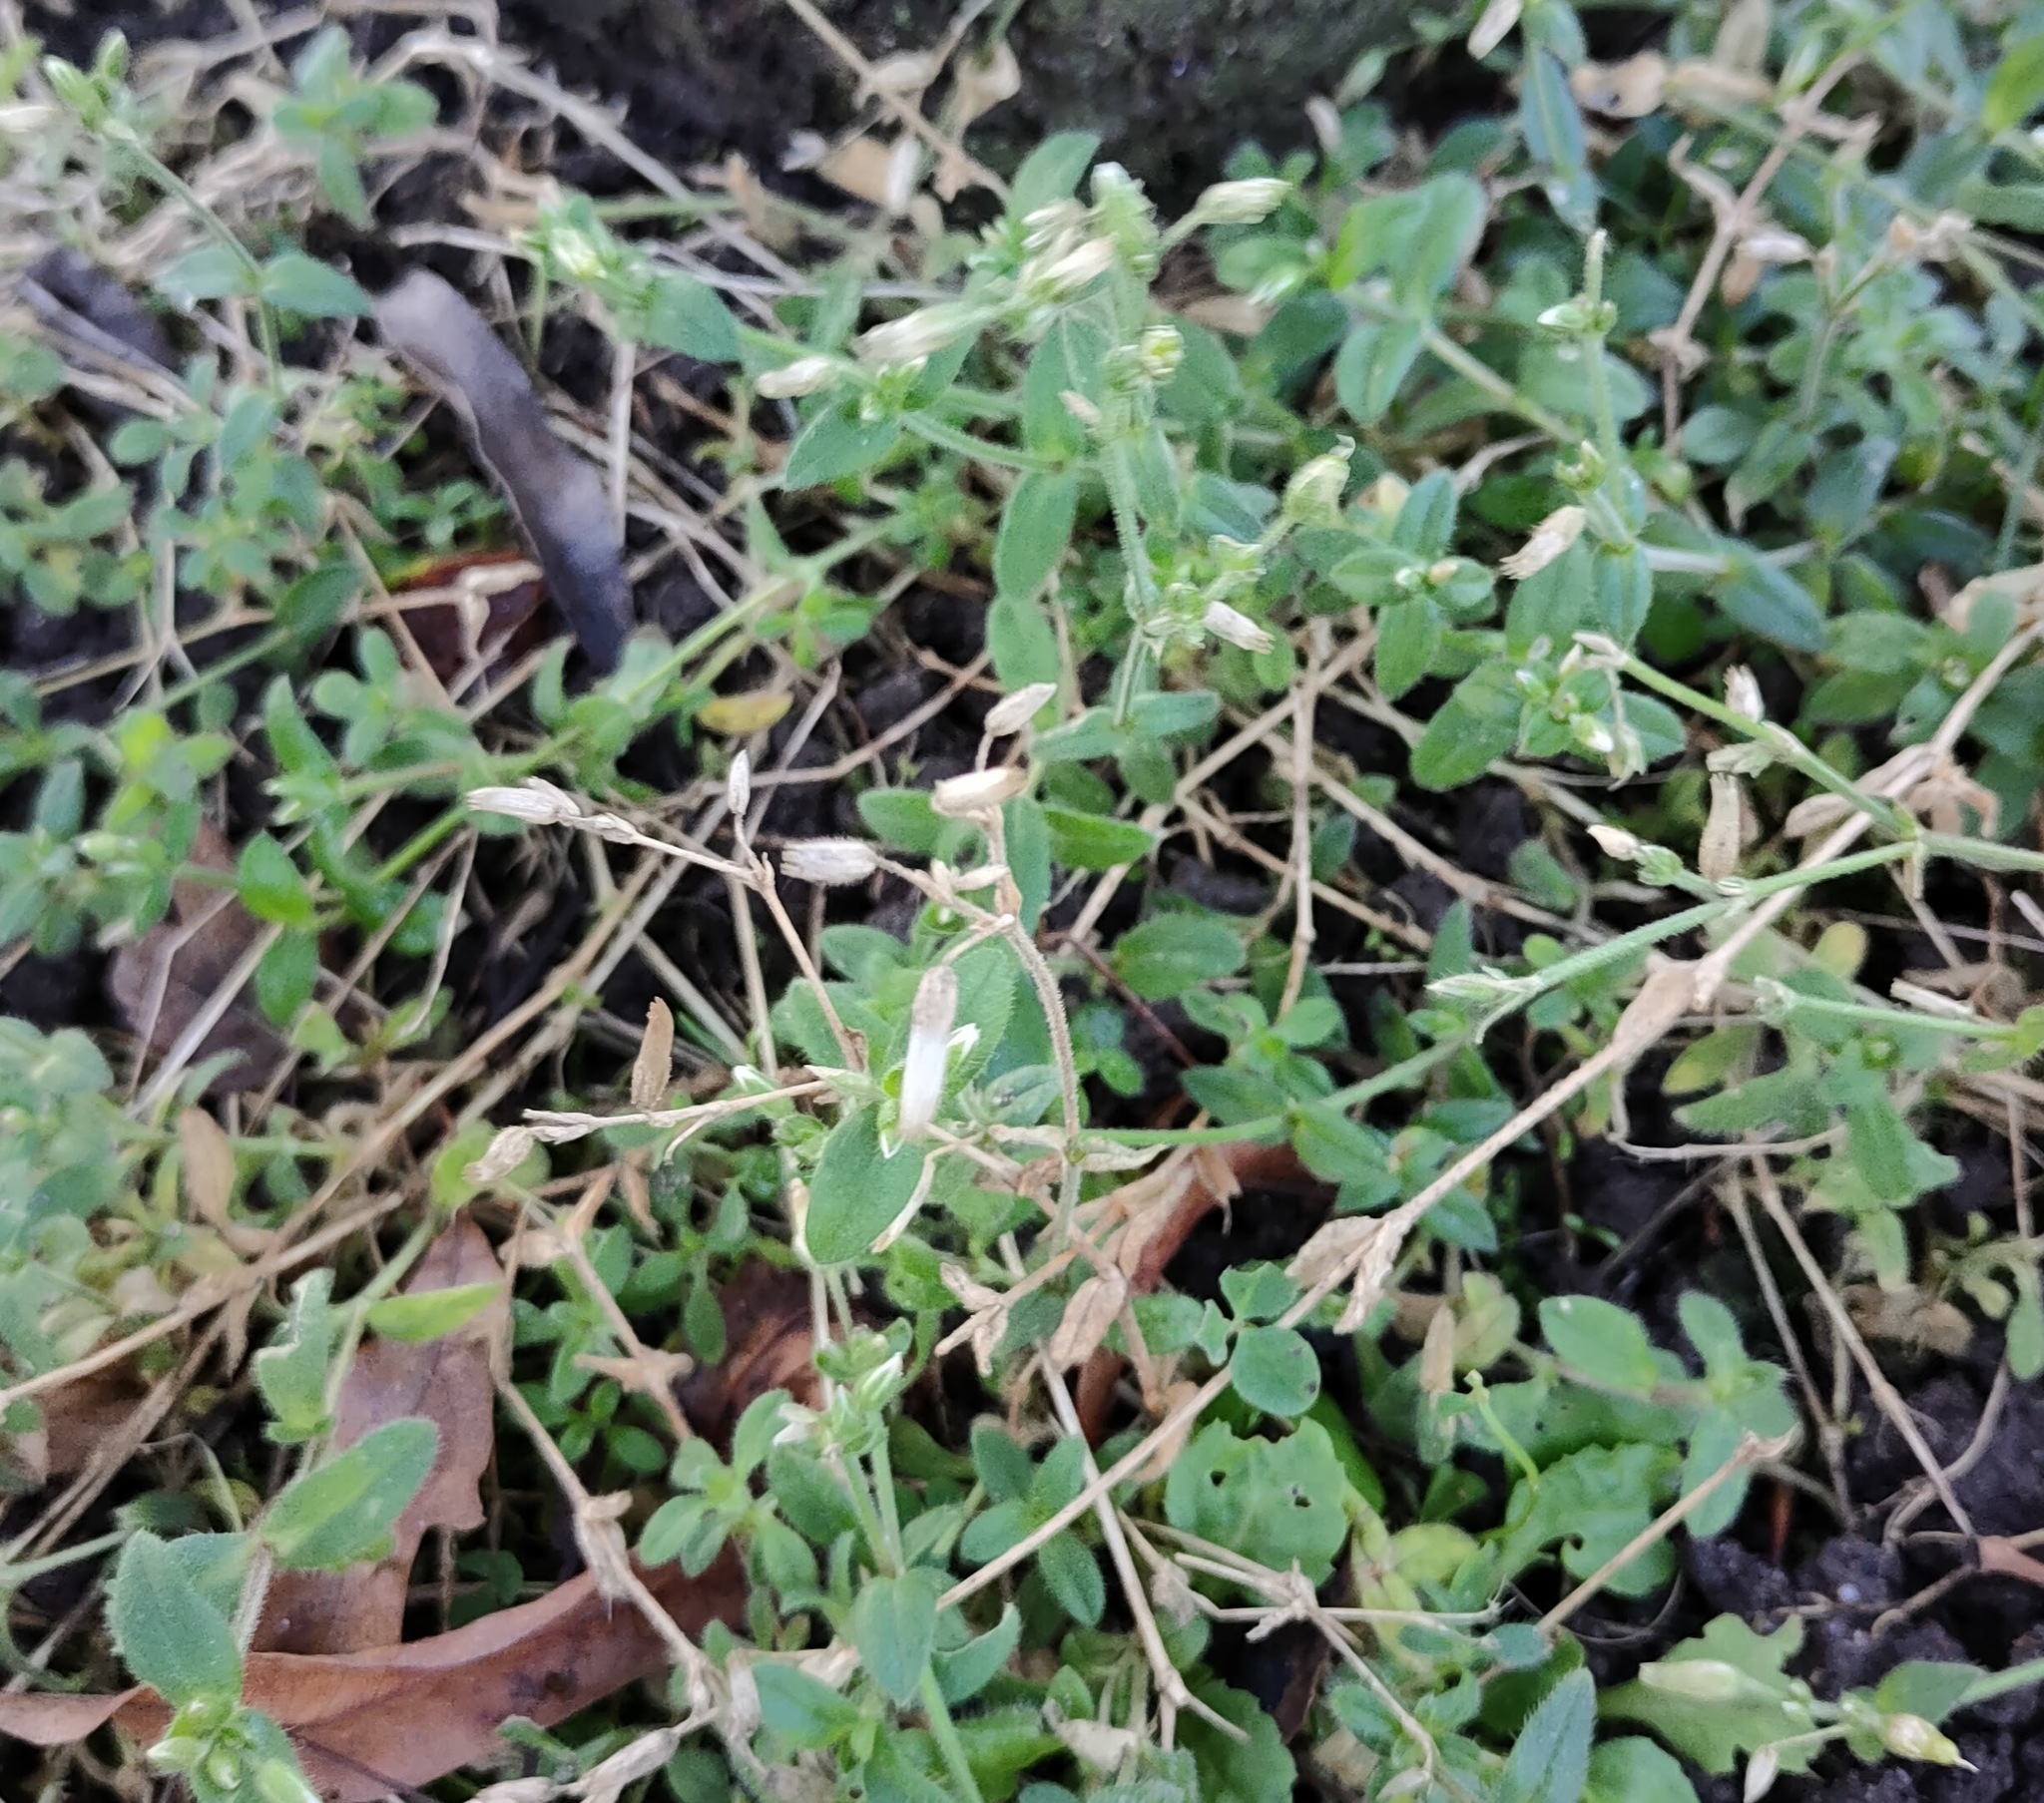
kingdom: Plantae
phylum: Tracheophyta
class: Magnoliopsida
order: Caryophyllales
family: Caryophyllaceae
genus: Cerastium
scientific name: Cerastium fontanum
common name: Common mouse-ear
